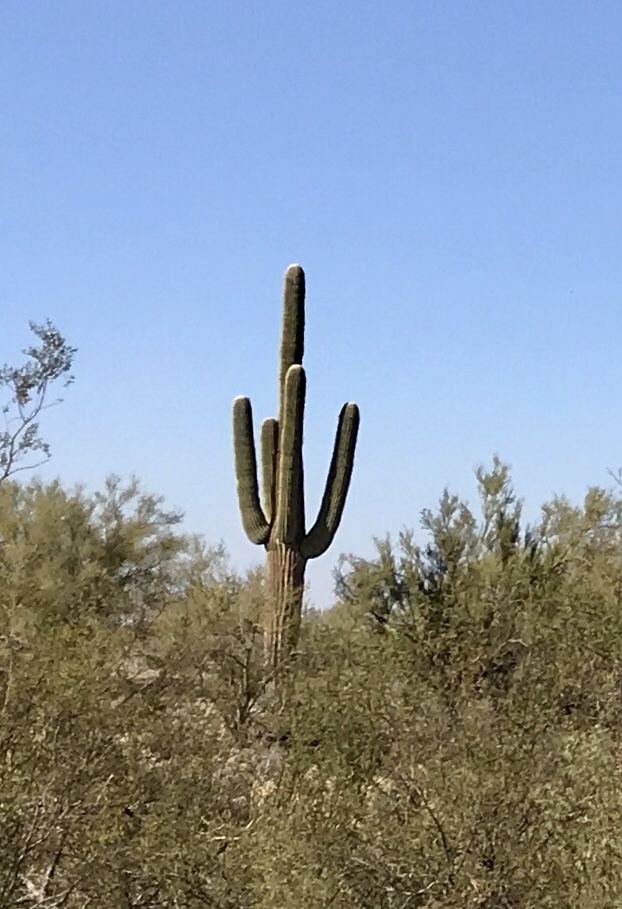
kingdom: Plantae
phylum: Tracheophyta
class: Magnoliopsida
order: Caryophyllales
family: Cactaceae
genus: Carnegiea
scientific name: Carnegiea gigantea
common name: Saguaro
